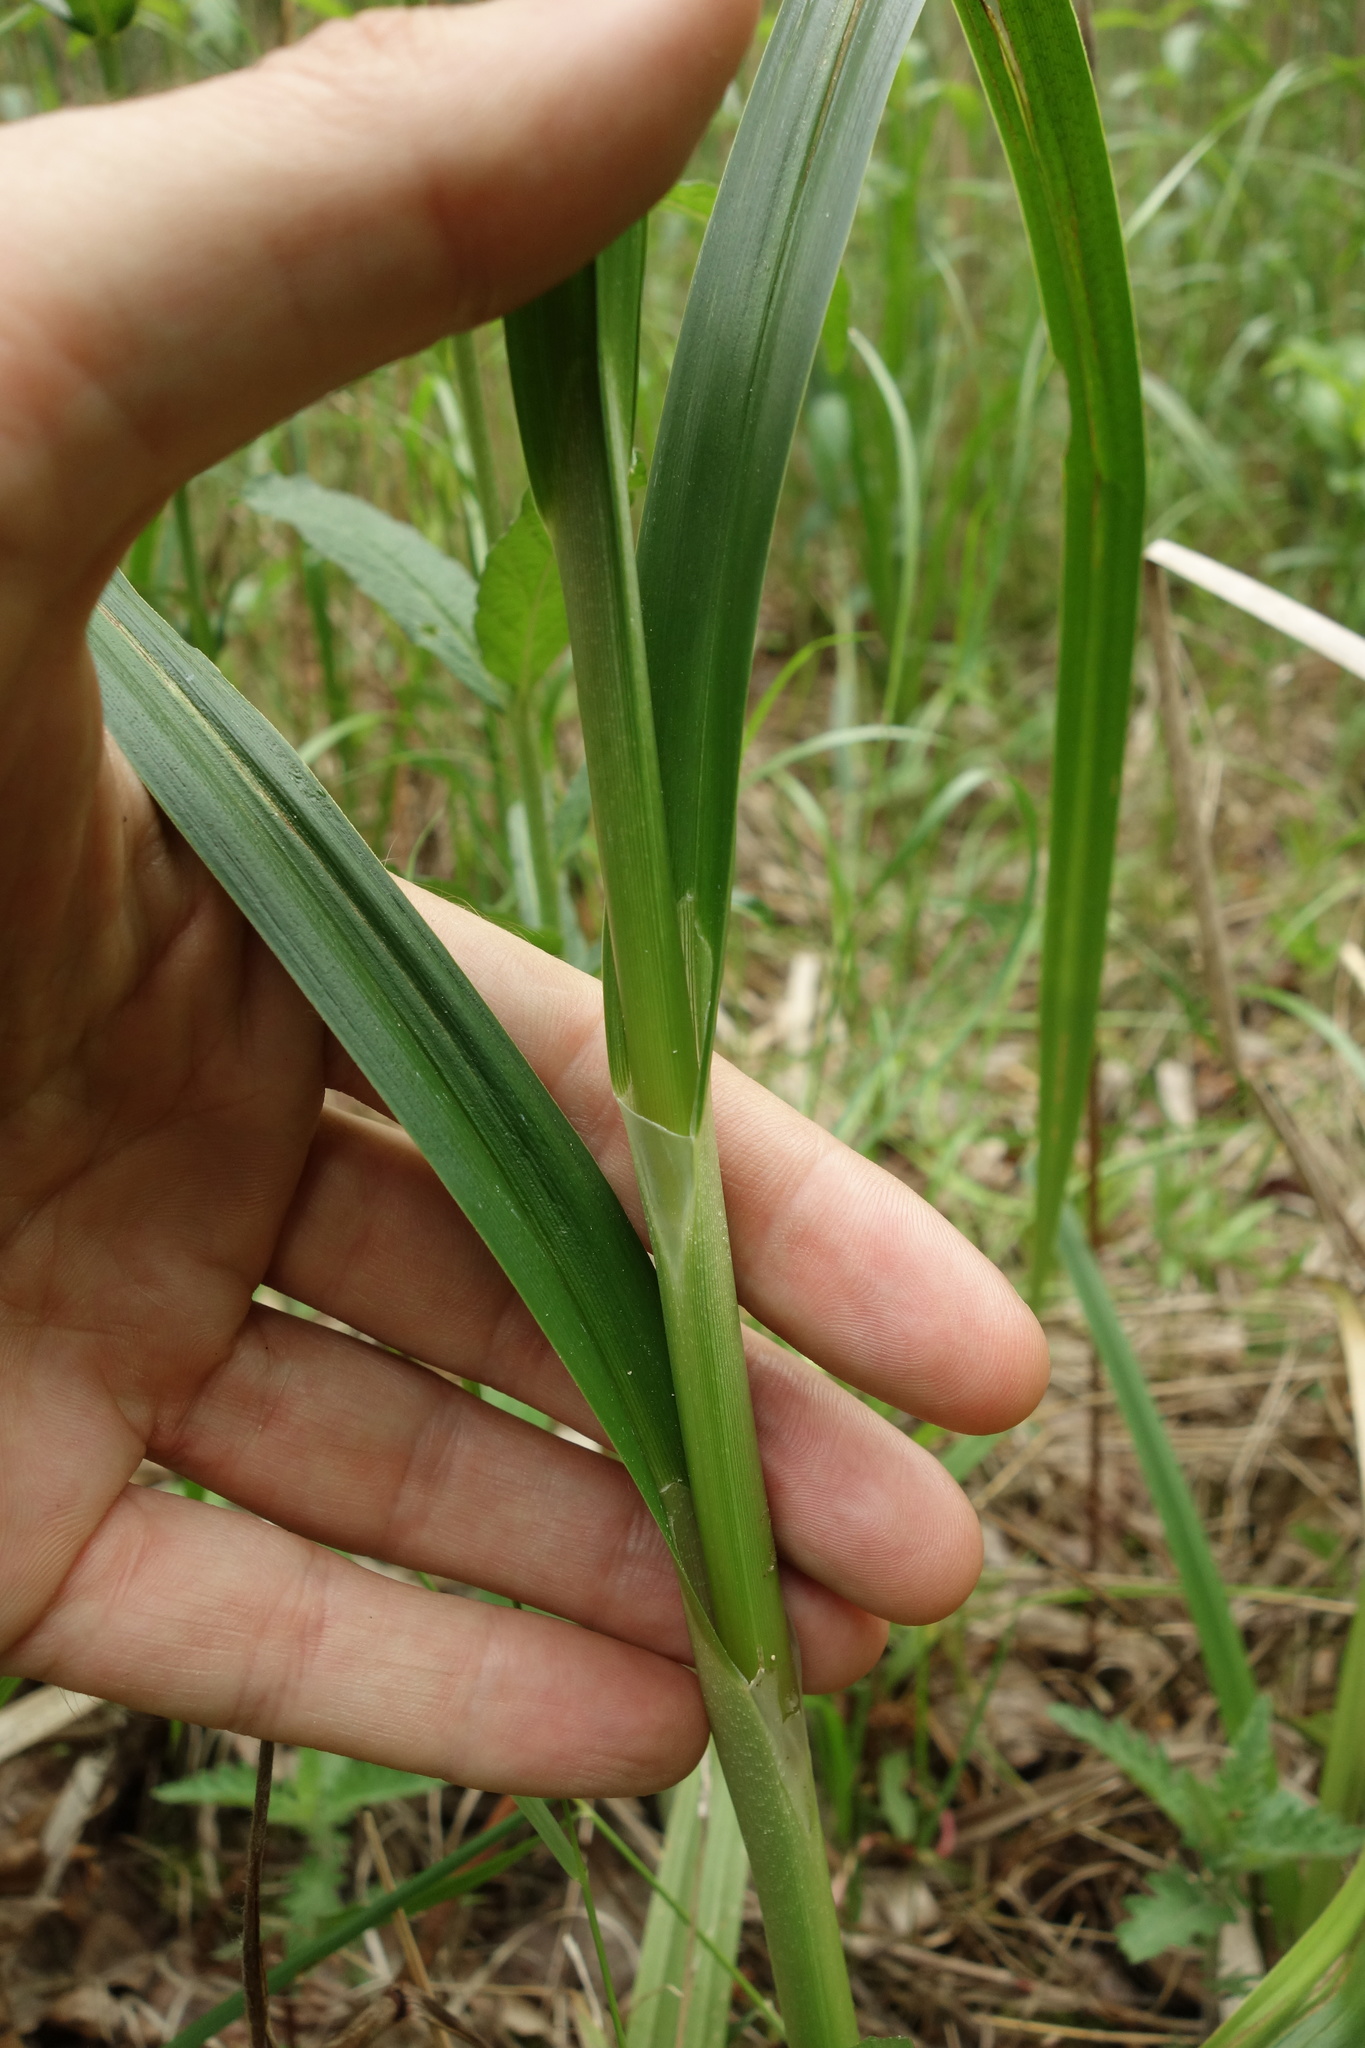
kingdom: Plantae
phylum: Tracheophyta
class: Liliopsida
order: Poales
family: Cyperaceae
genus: Scirpus
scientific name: Scirpus sylvaticus
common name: Wood club-rush
